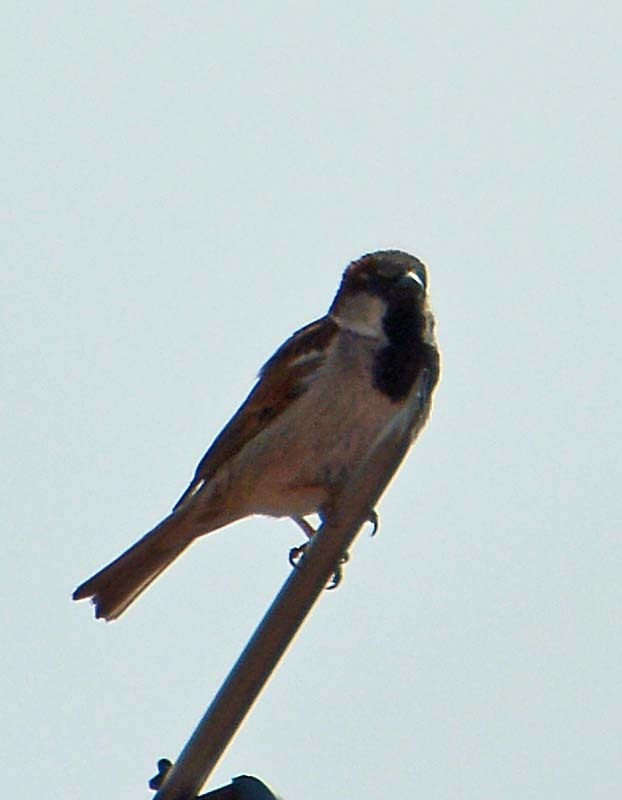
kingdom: Animalia
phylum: Chordata
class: Aves
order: Passeriformes
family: Passeridae
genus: Passer
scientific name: Passer domesticus
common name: House sparrow
